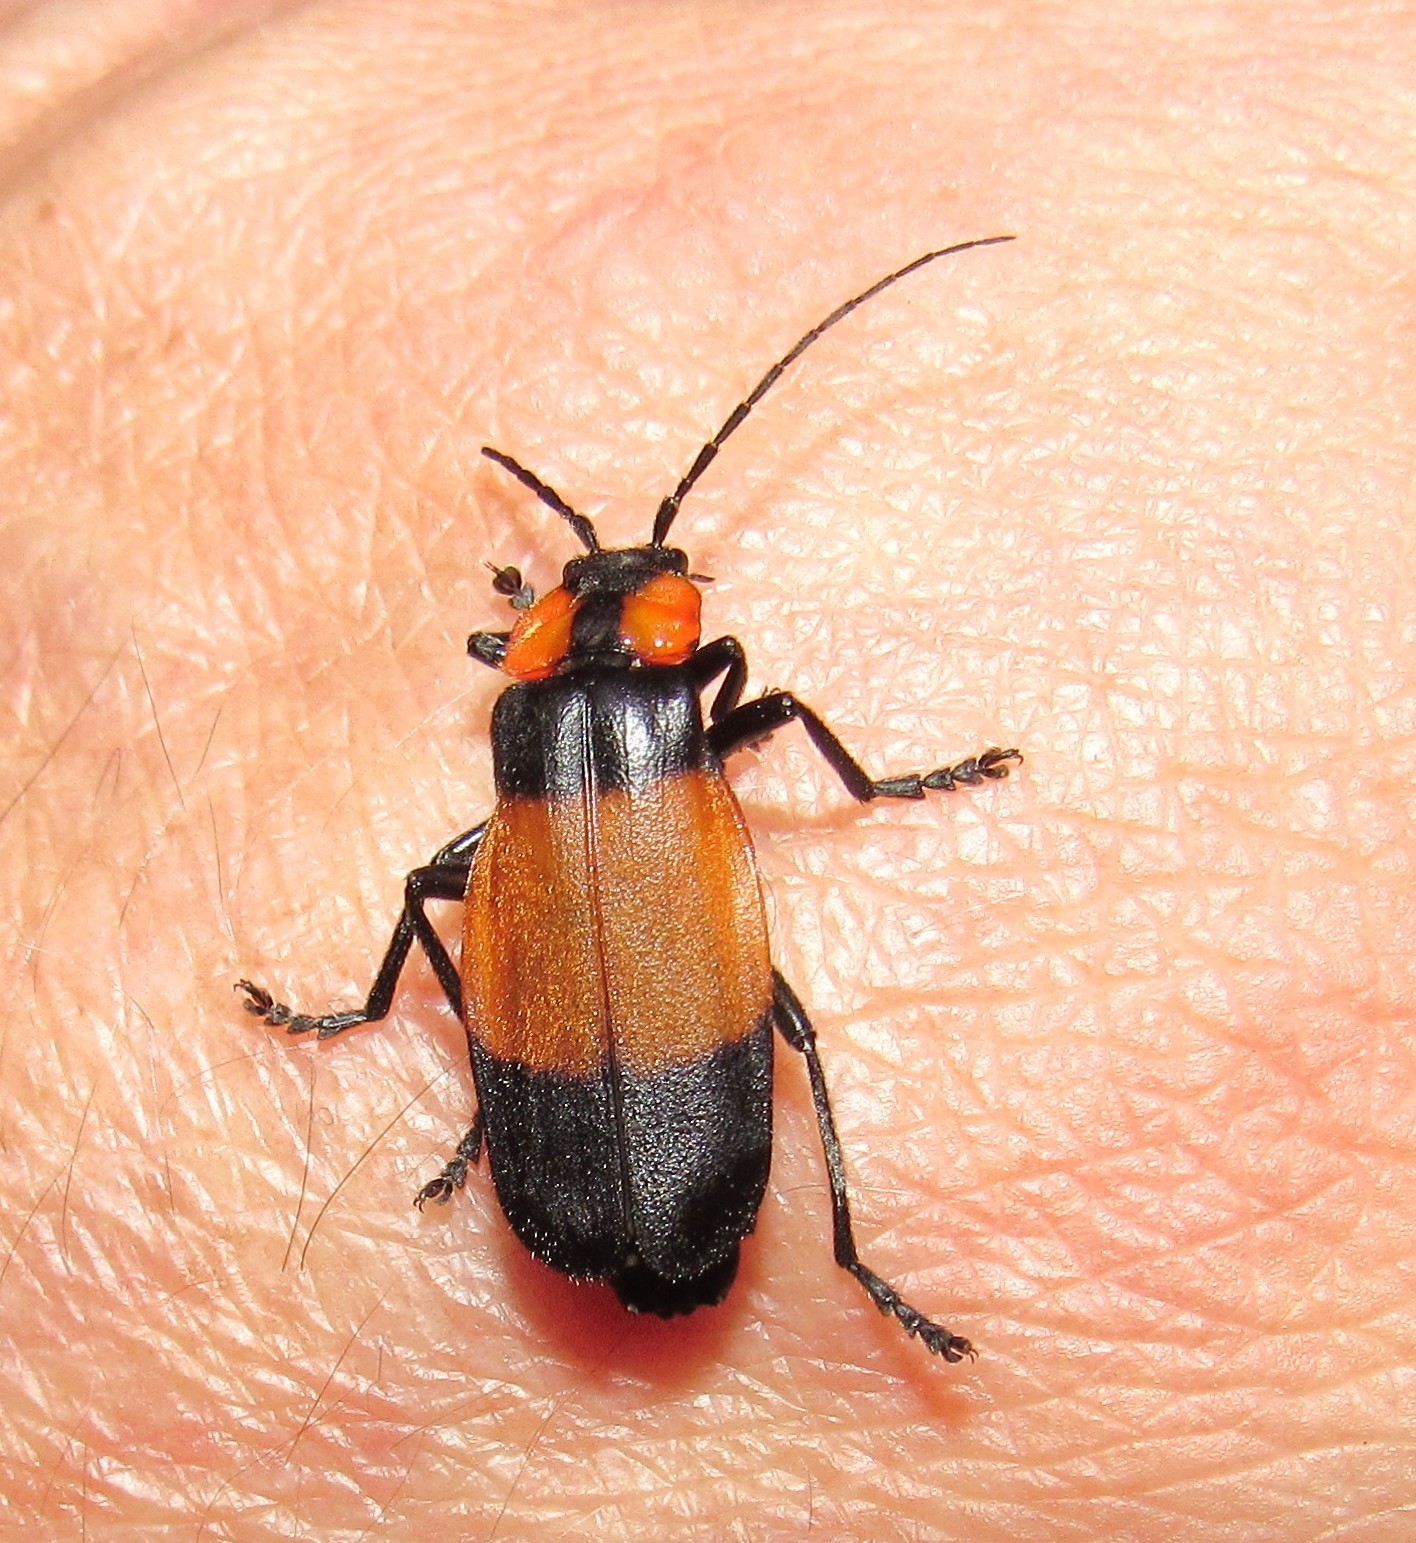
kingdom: Animalia
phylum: Arthropoda
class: Insecta
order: Coleoptera
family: Cantharidae
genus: Discodon
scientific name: Discodon
